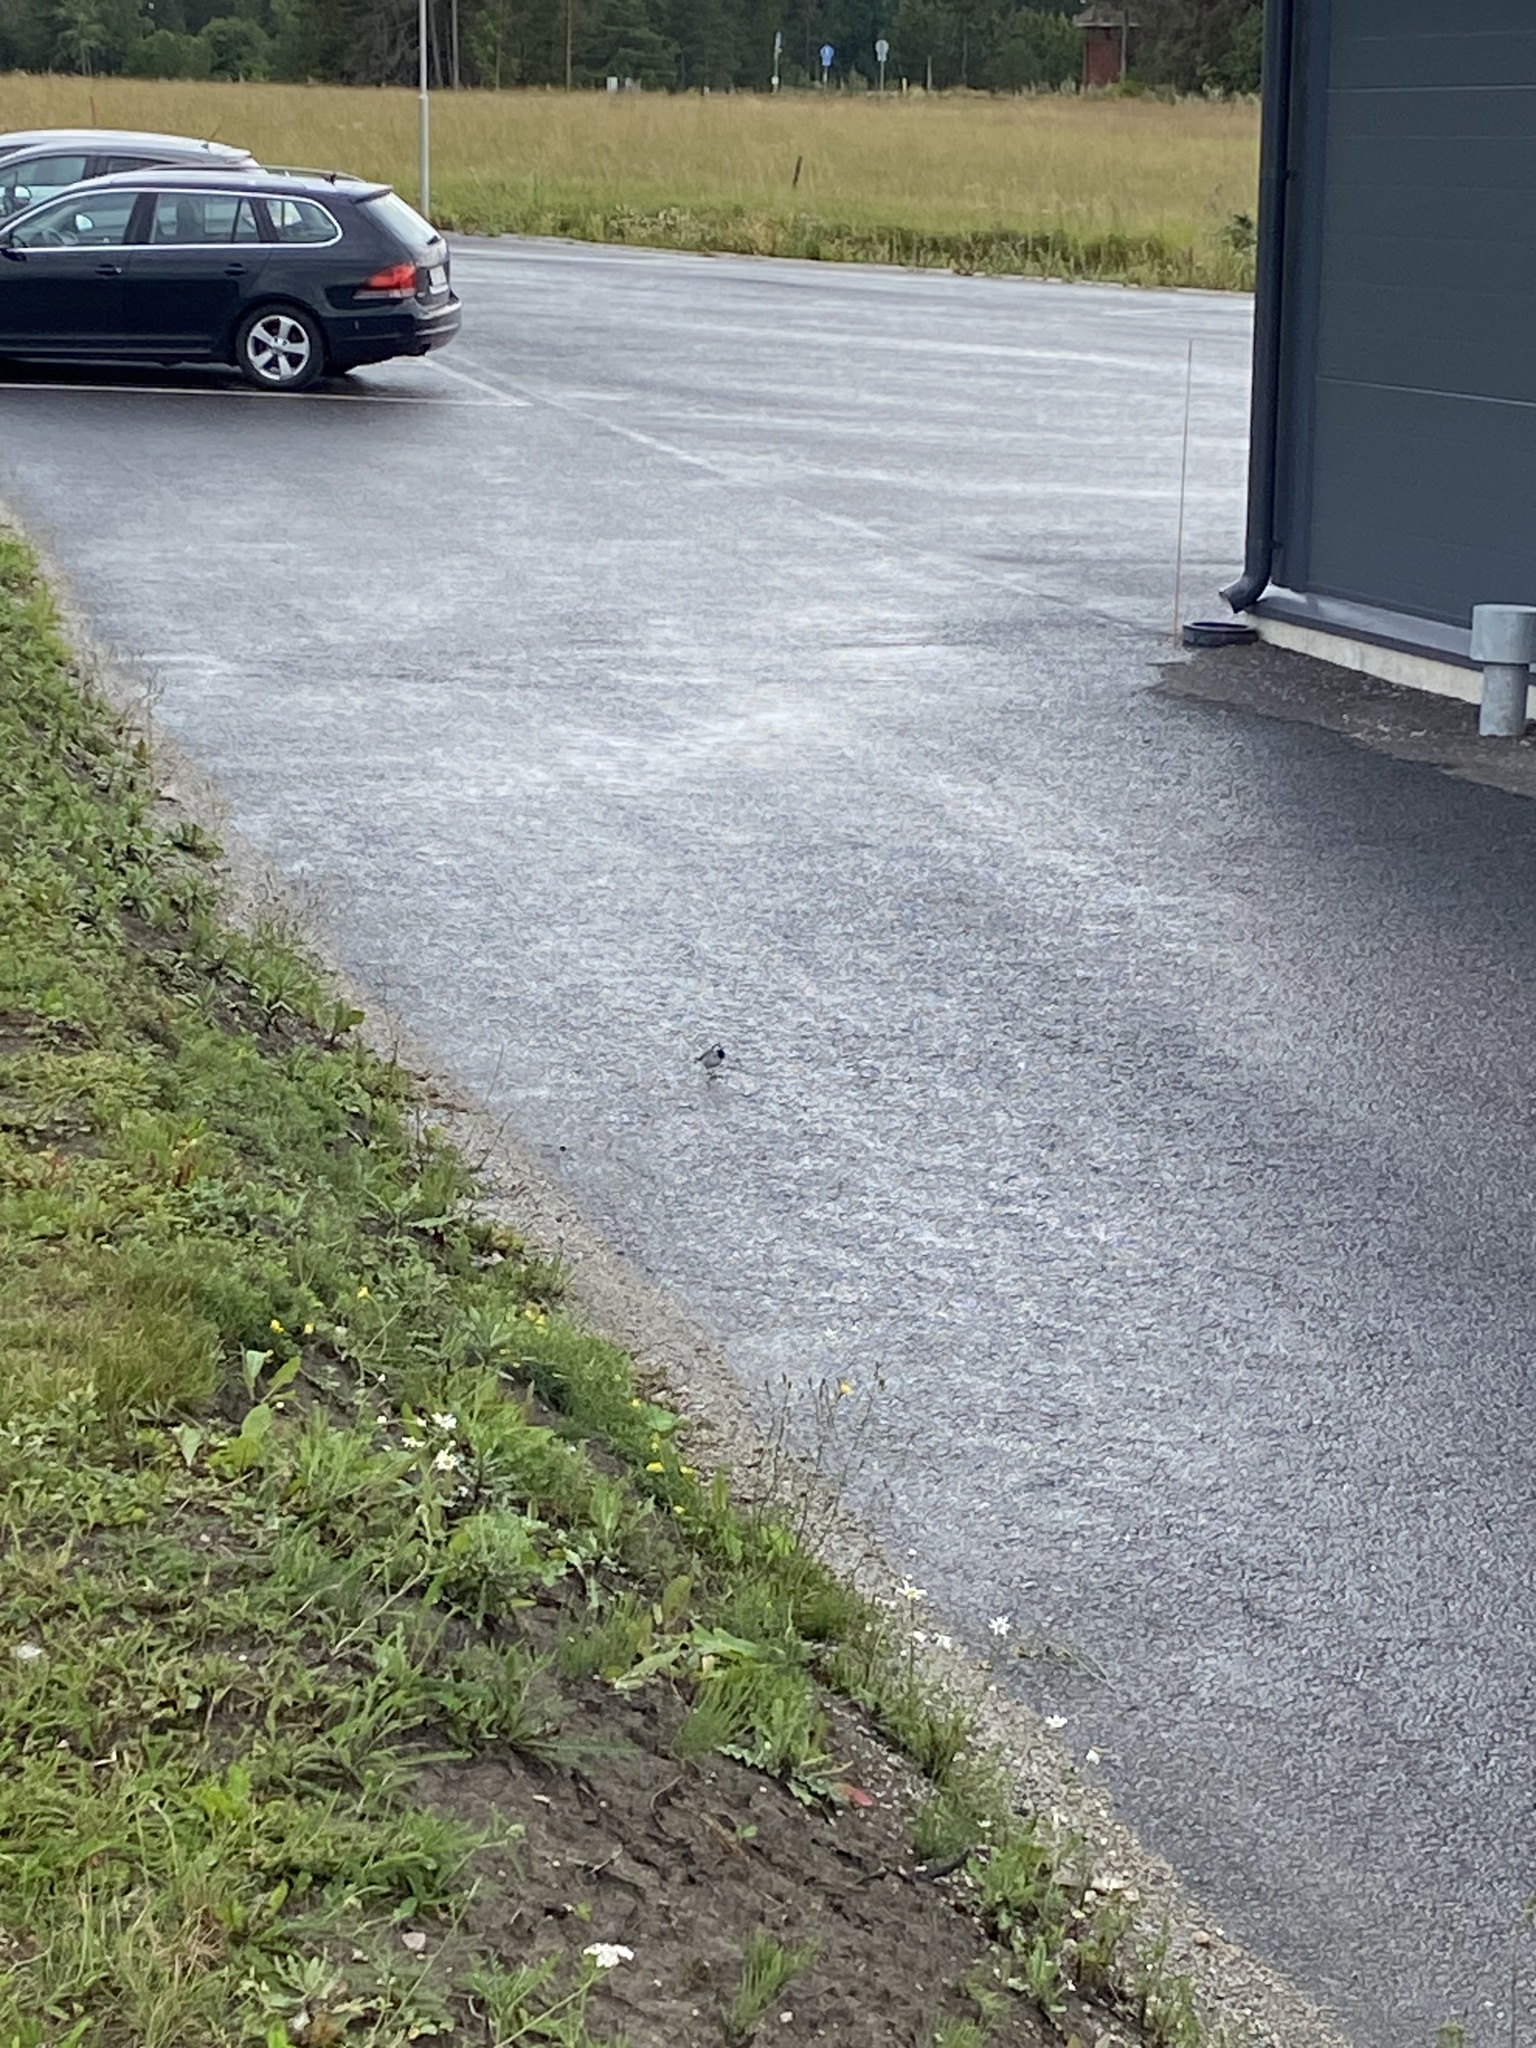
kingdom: Animalia
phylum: Chordata
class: Aves
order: Passeriformes
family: Motacillidae
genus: Motacilla
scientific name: Motacilla alba
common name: White wagtail
